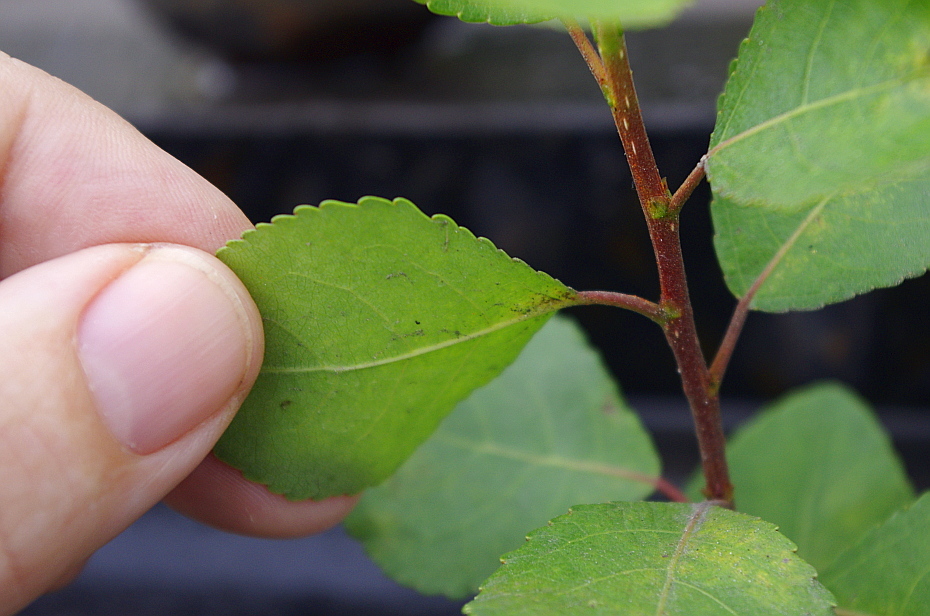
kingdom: Plantae
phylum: Tracheophyta
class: Magnoliopsida
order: Malpighiales
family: Salicaceae
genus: Populus
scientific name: Populus
